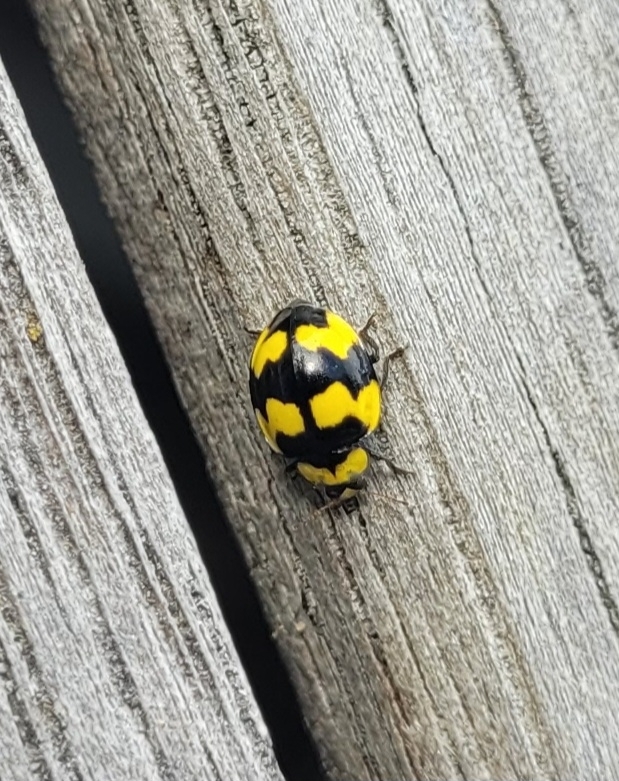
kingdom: Animalia
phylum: Arthropoda
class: Insecta
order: Coleoptera
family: Coccinellidae
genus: Illeis
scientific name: Illeis galbula
